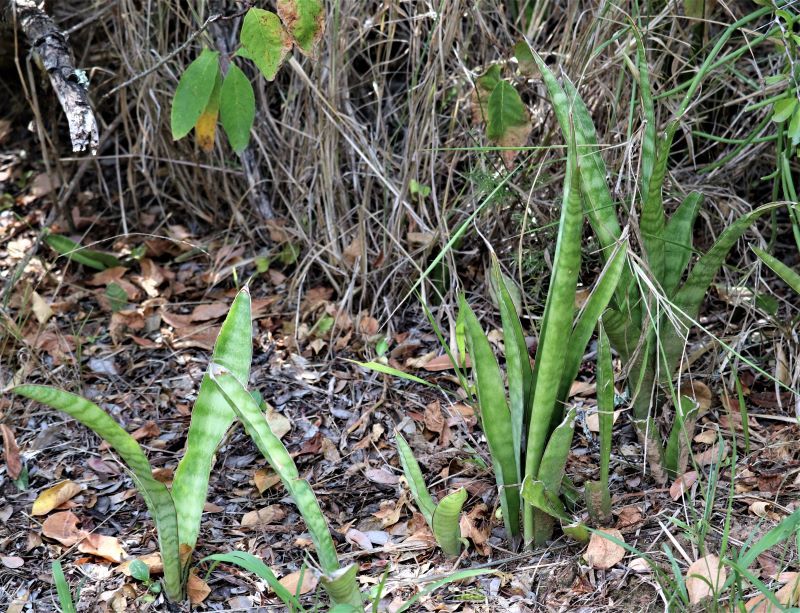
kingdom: Plantae
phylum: Tracheophyta
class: Liliopsida
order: Asparagales
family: Asparagaceae
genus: Dracaena
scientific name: Dracaena hyacinthoides
